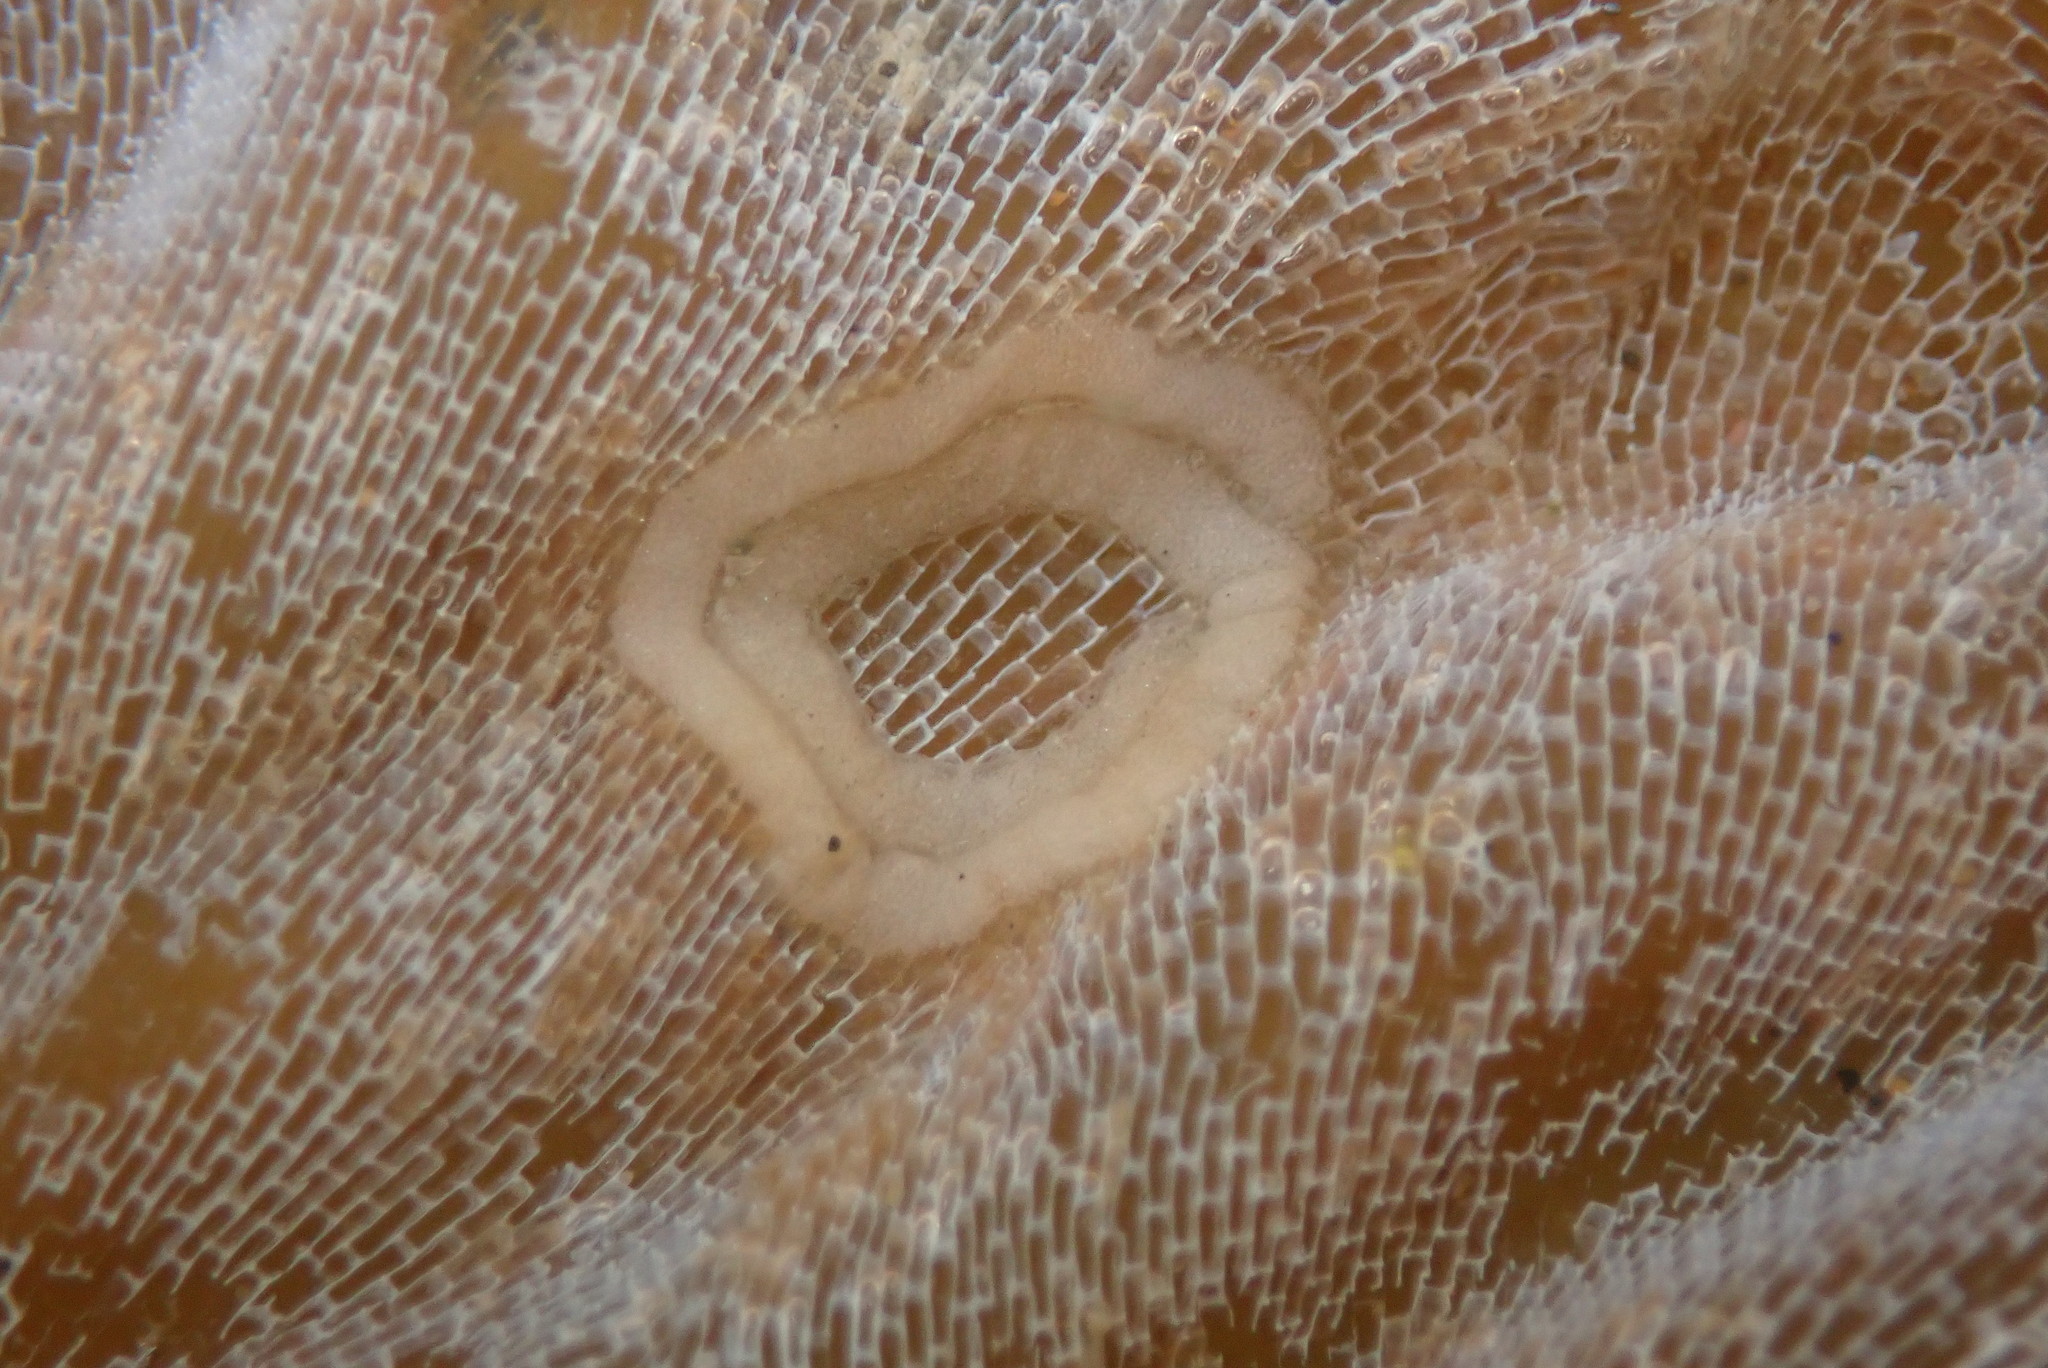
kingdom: Animalia
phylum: Mollusca
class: Gastropoda
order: Nudibranchia
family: Corambidae
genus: Corambe
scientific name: Corambe pacifica
